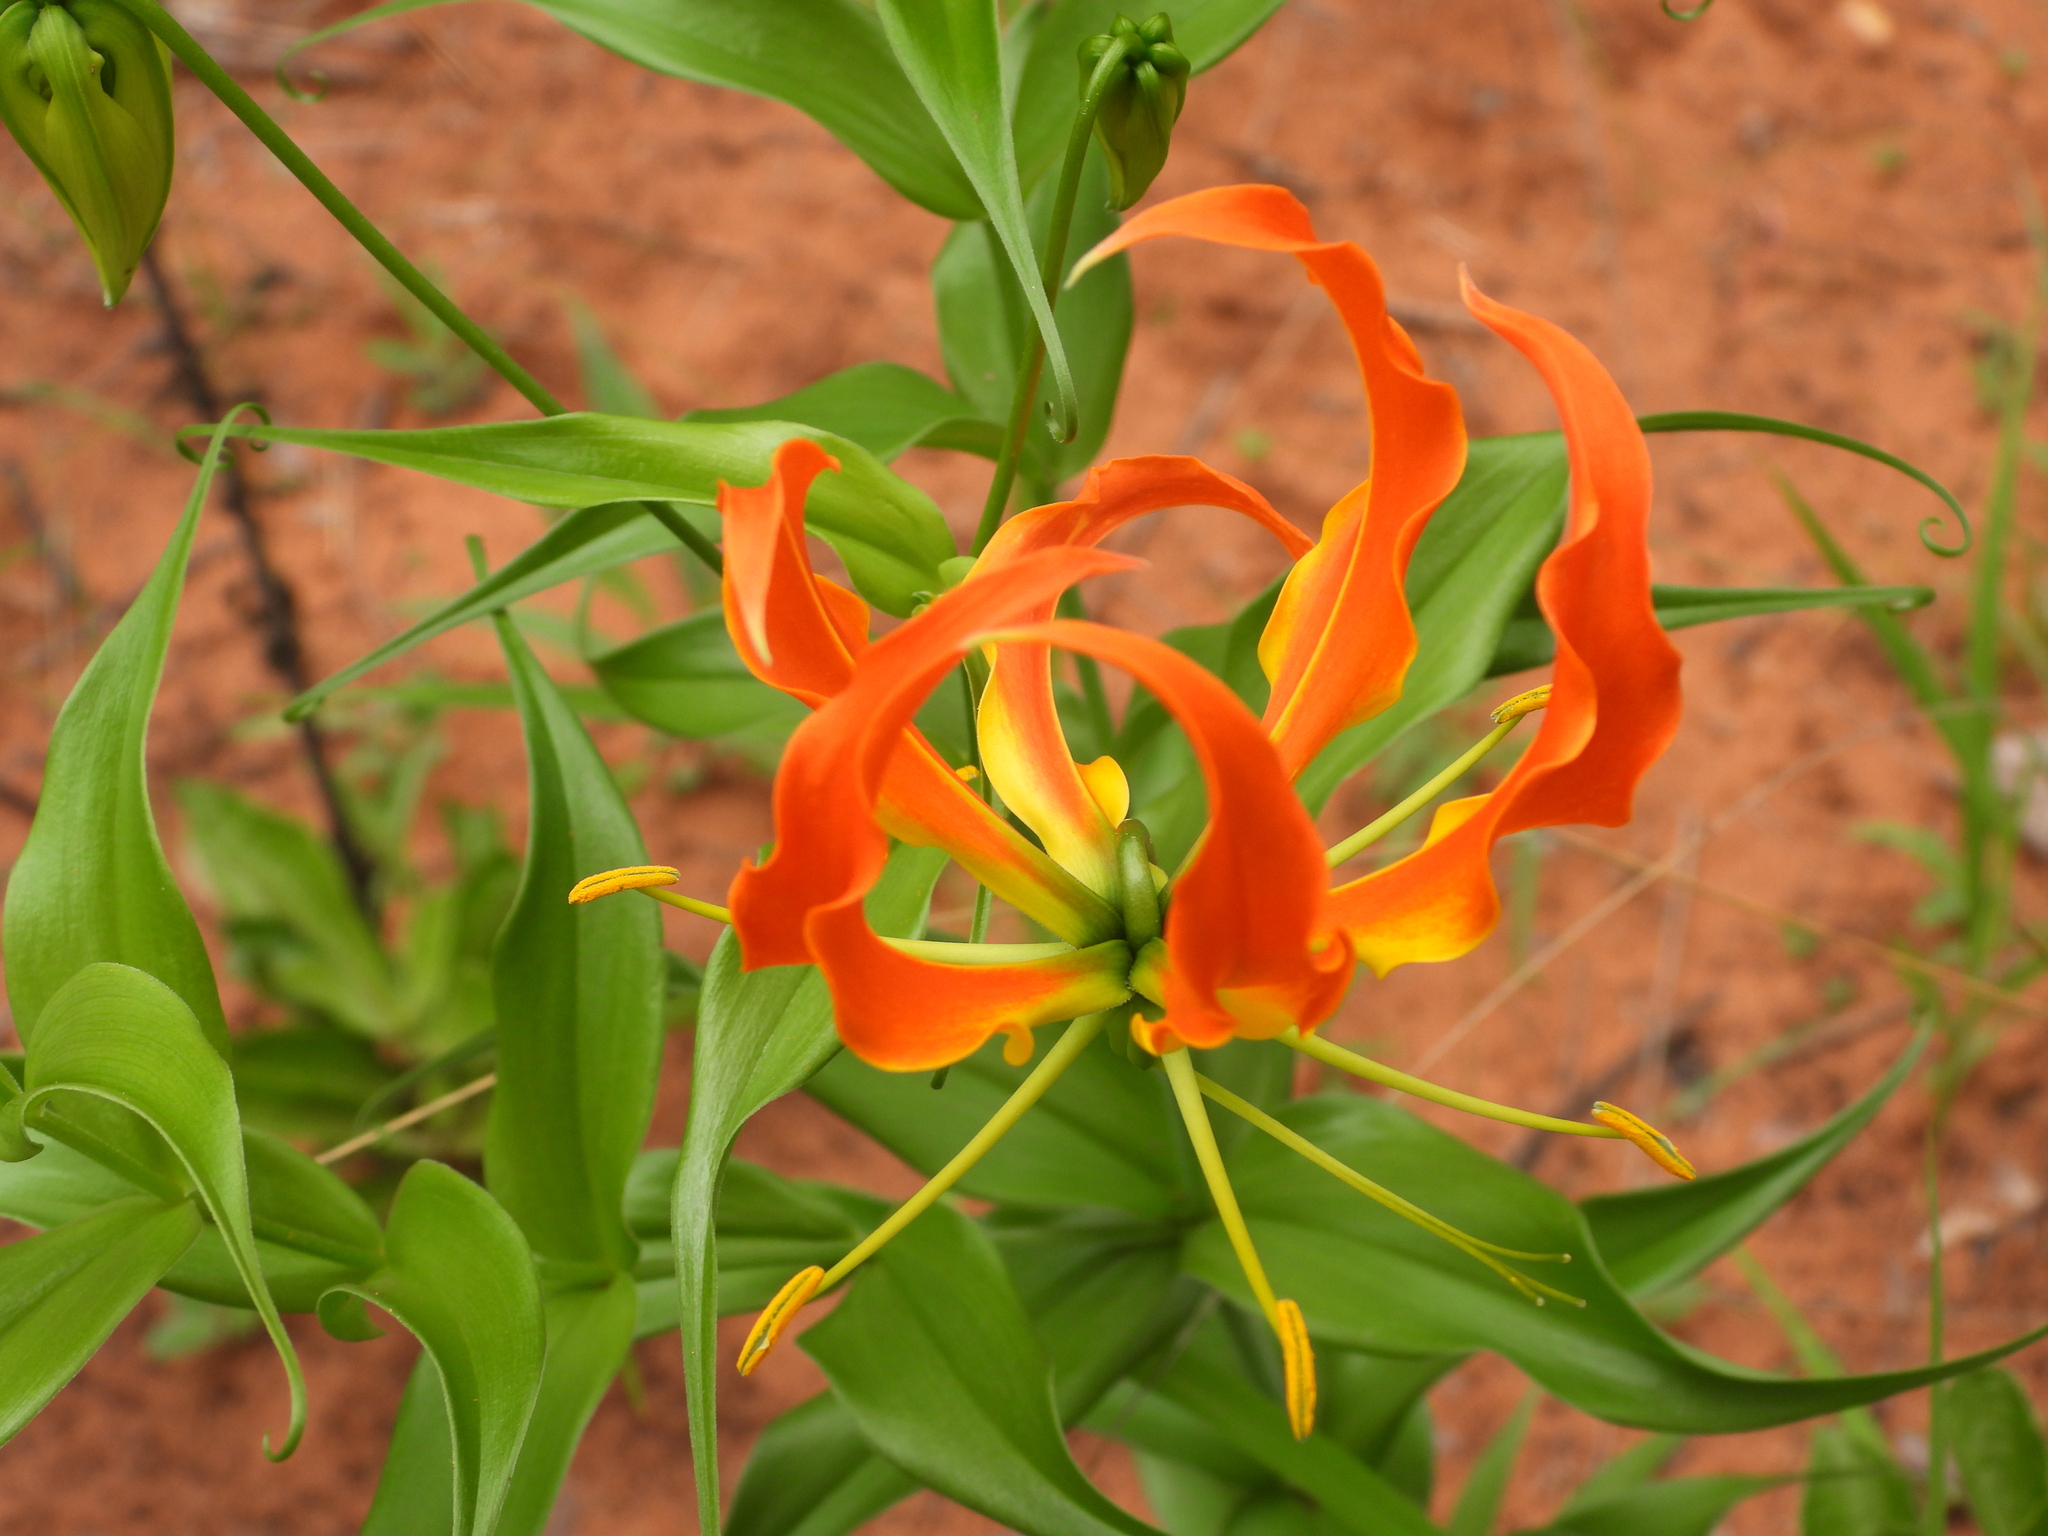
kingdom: Plantae
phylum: Tracheophyta
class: Liliopsida
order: Liliales
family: Colchicaceae
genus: Gloriosa
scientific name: Gloriosa superba
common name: Flame lily
